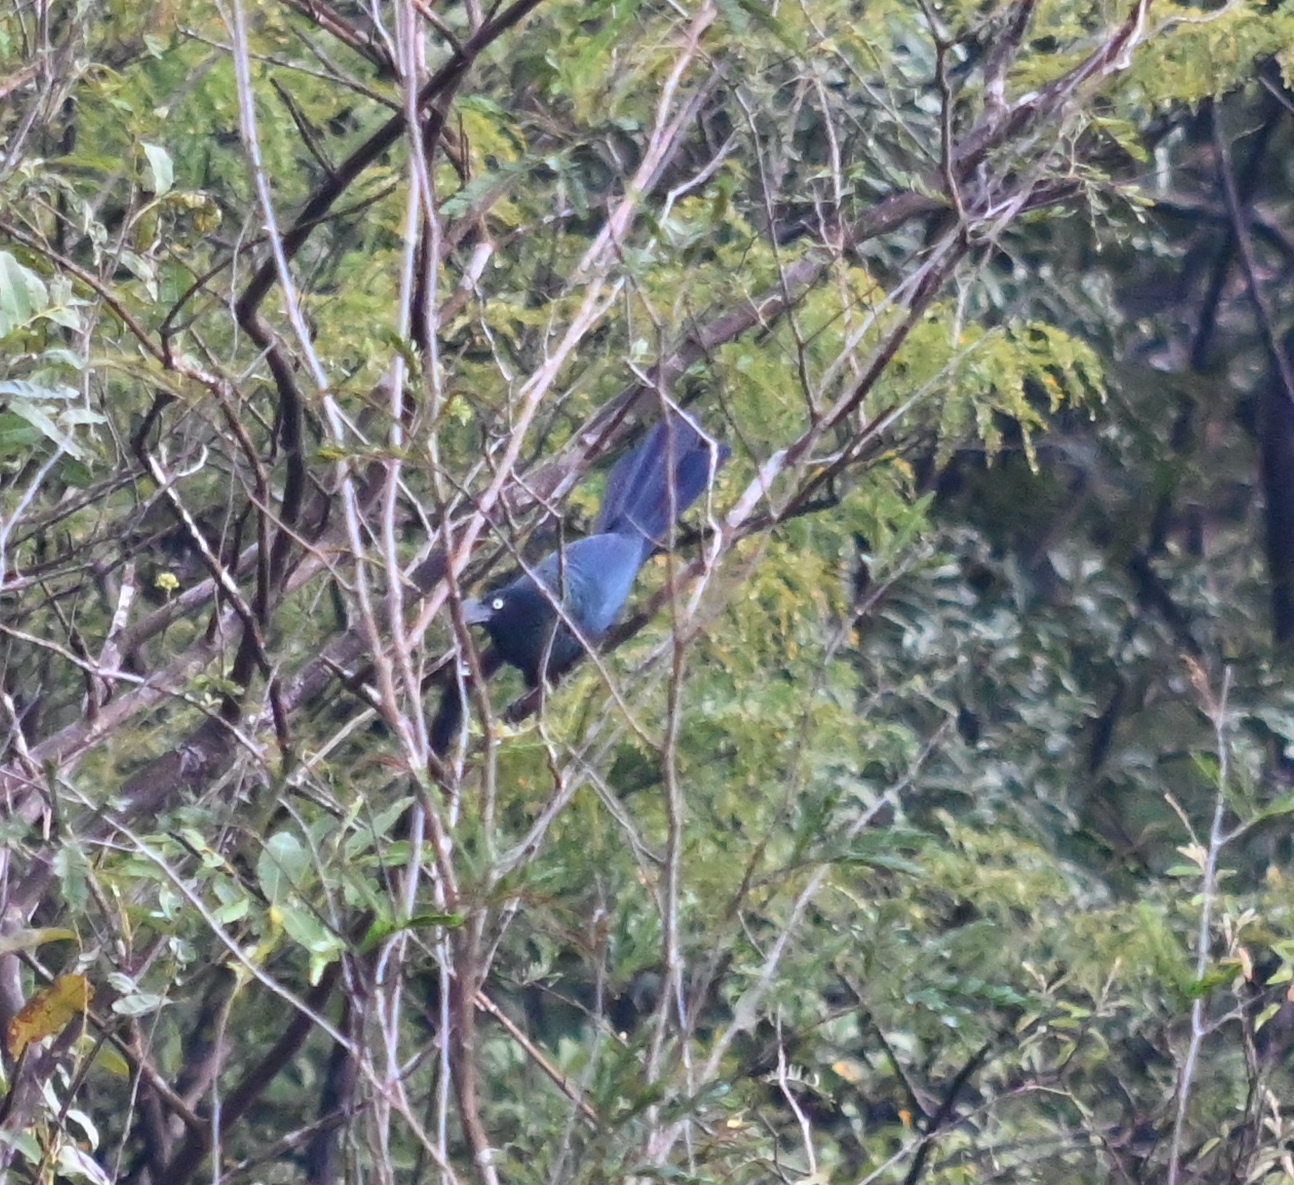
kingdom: Animalia
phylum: Chordata
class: Aves
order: Cuculiformes
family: Cuculidae
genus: Crotophaga
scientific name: Crotophaga major
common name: Greater ani
